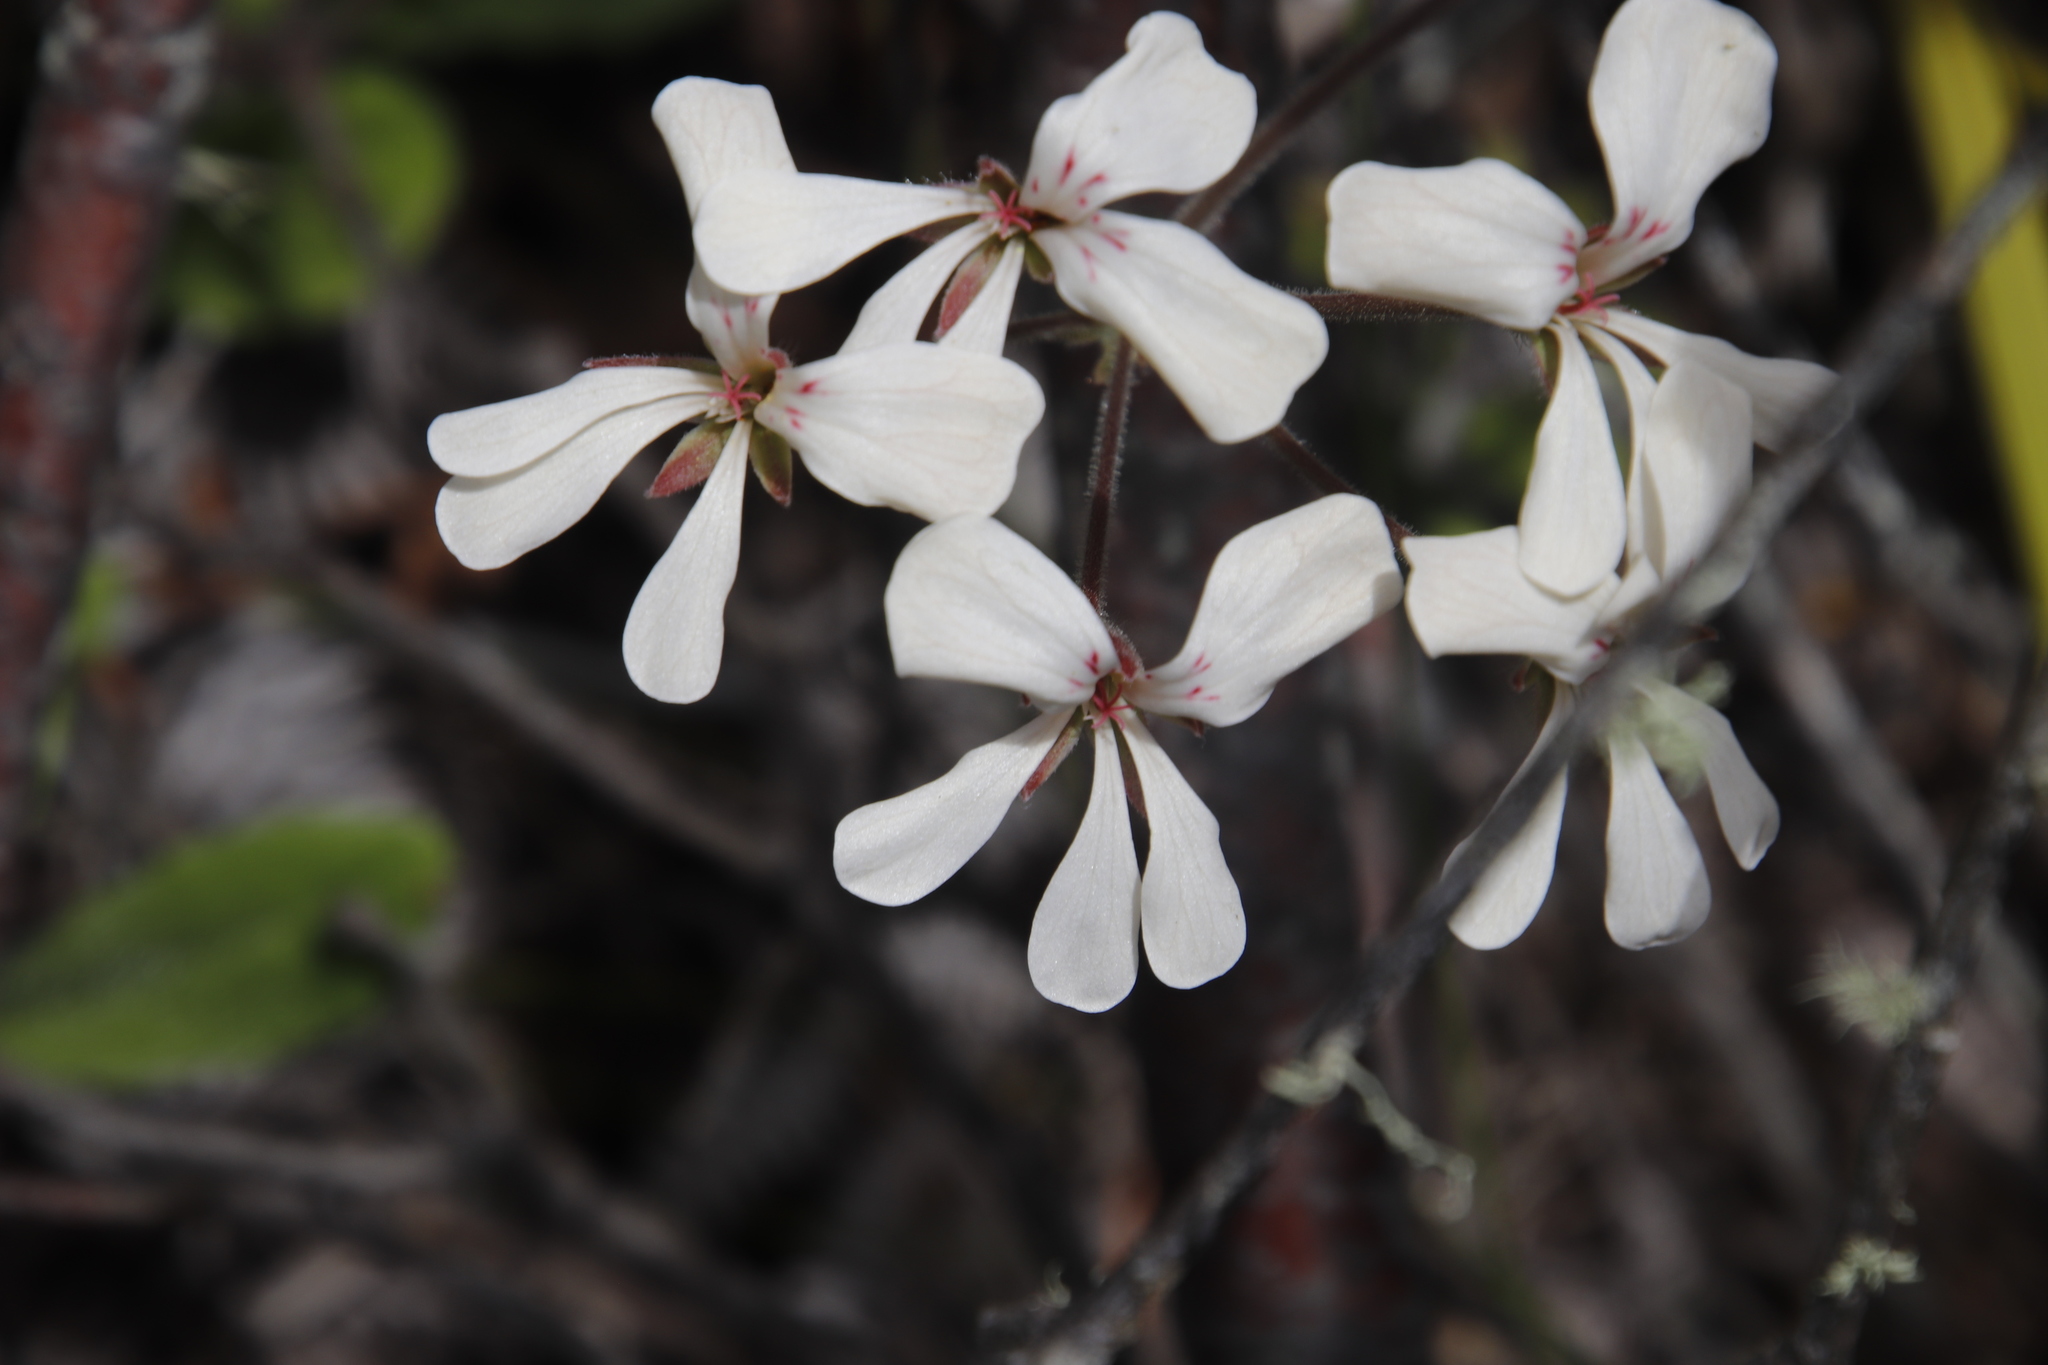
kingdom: Plantae
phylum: Tracheophyta
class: Magnoliopsida
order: Geraniales
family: Geraniaceae
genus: Pelargonium
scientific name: Pelargonium pinnatum
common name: Pinnated pelargonium
